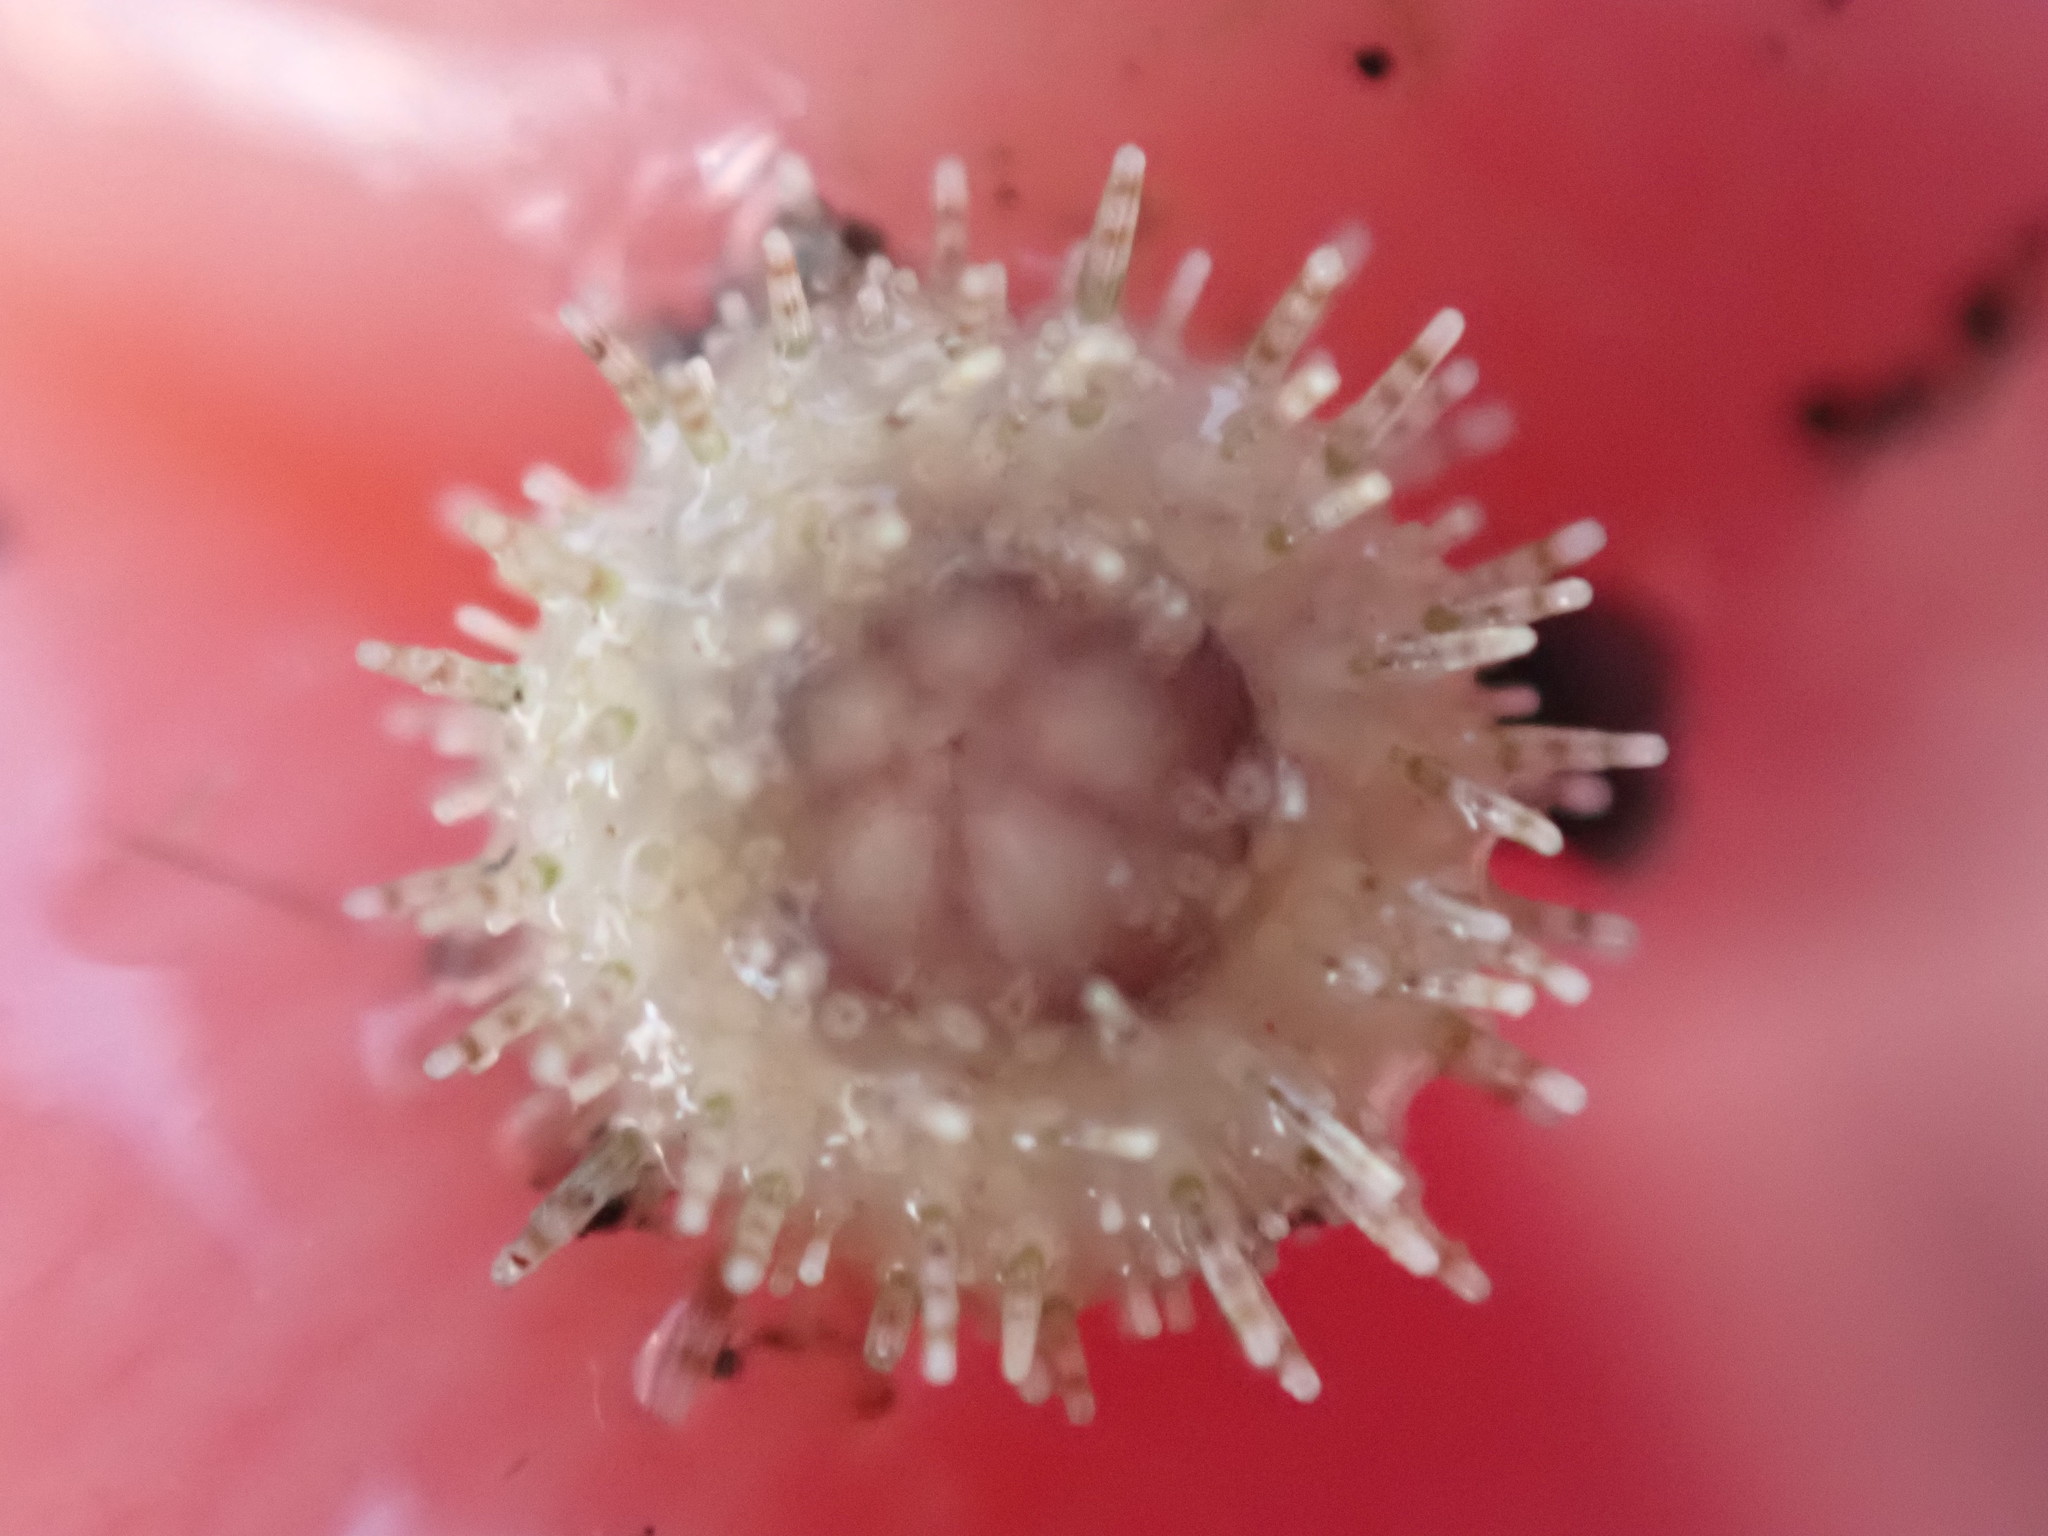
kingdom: Animalia
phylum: Echinodermata
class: Echinoidea
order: Camarodonta
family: Echinometridae
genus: Evechinus
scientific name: Evechinus chloroticus
